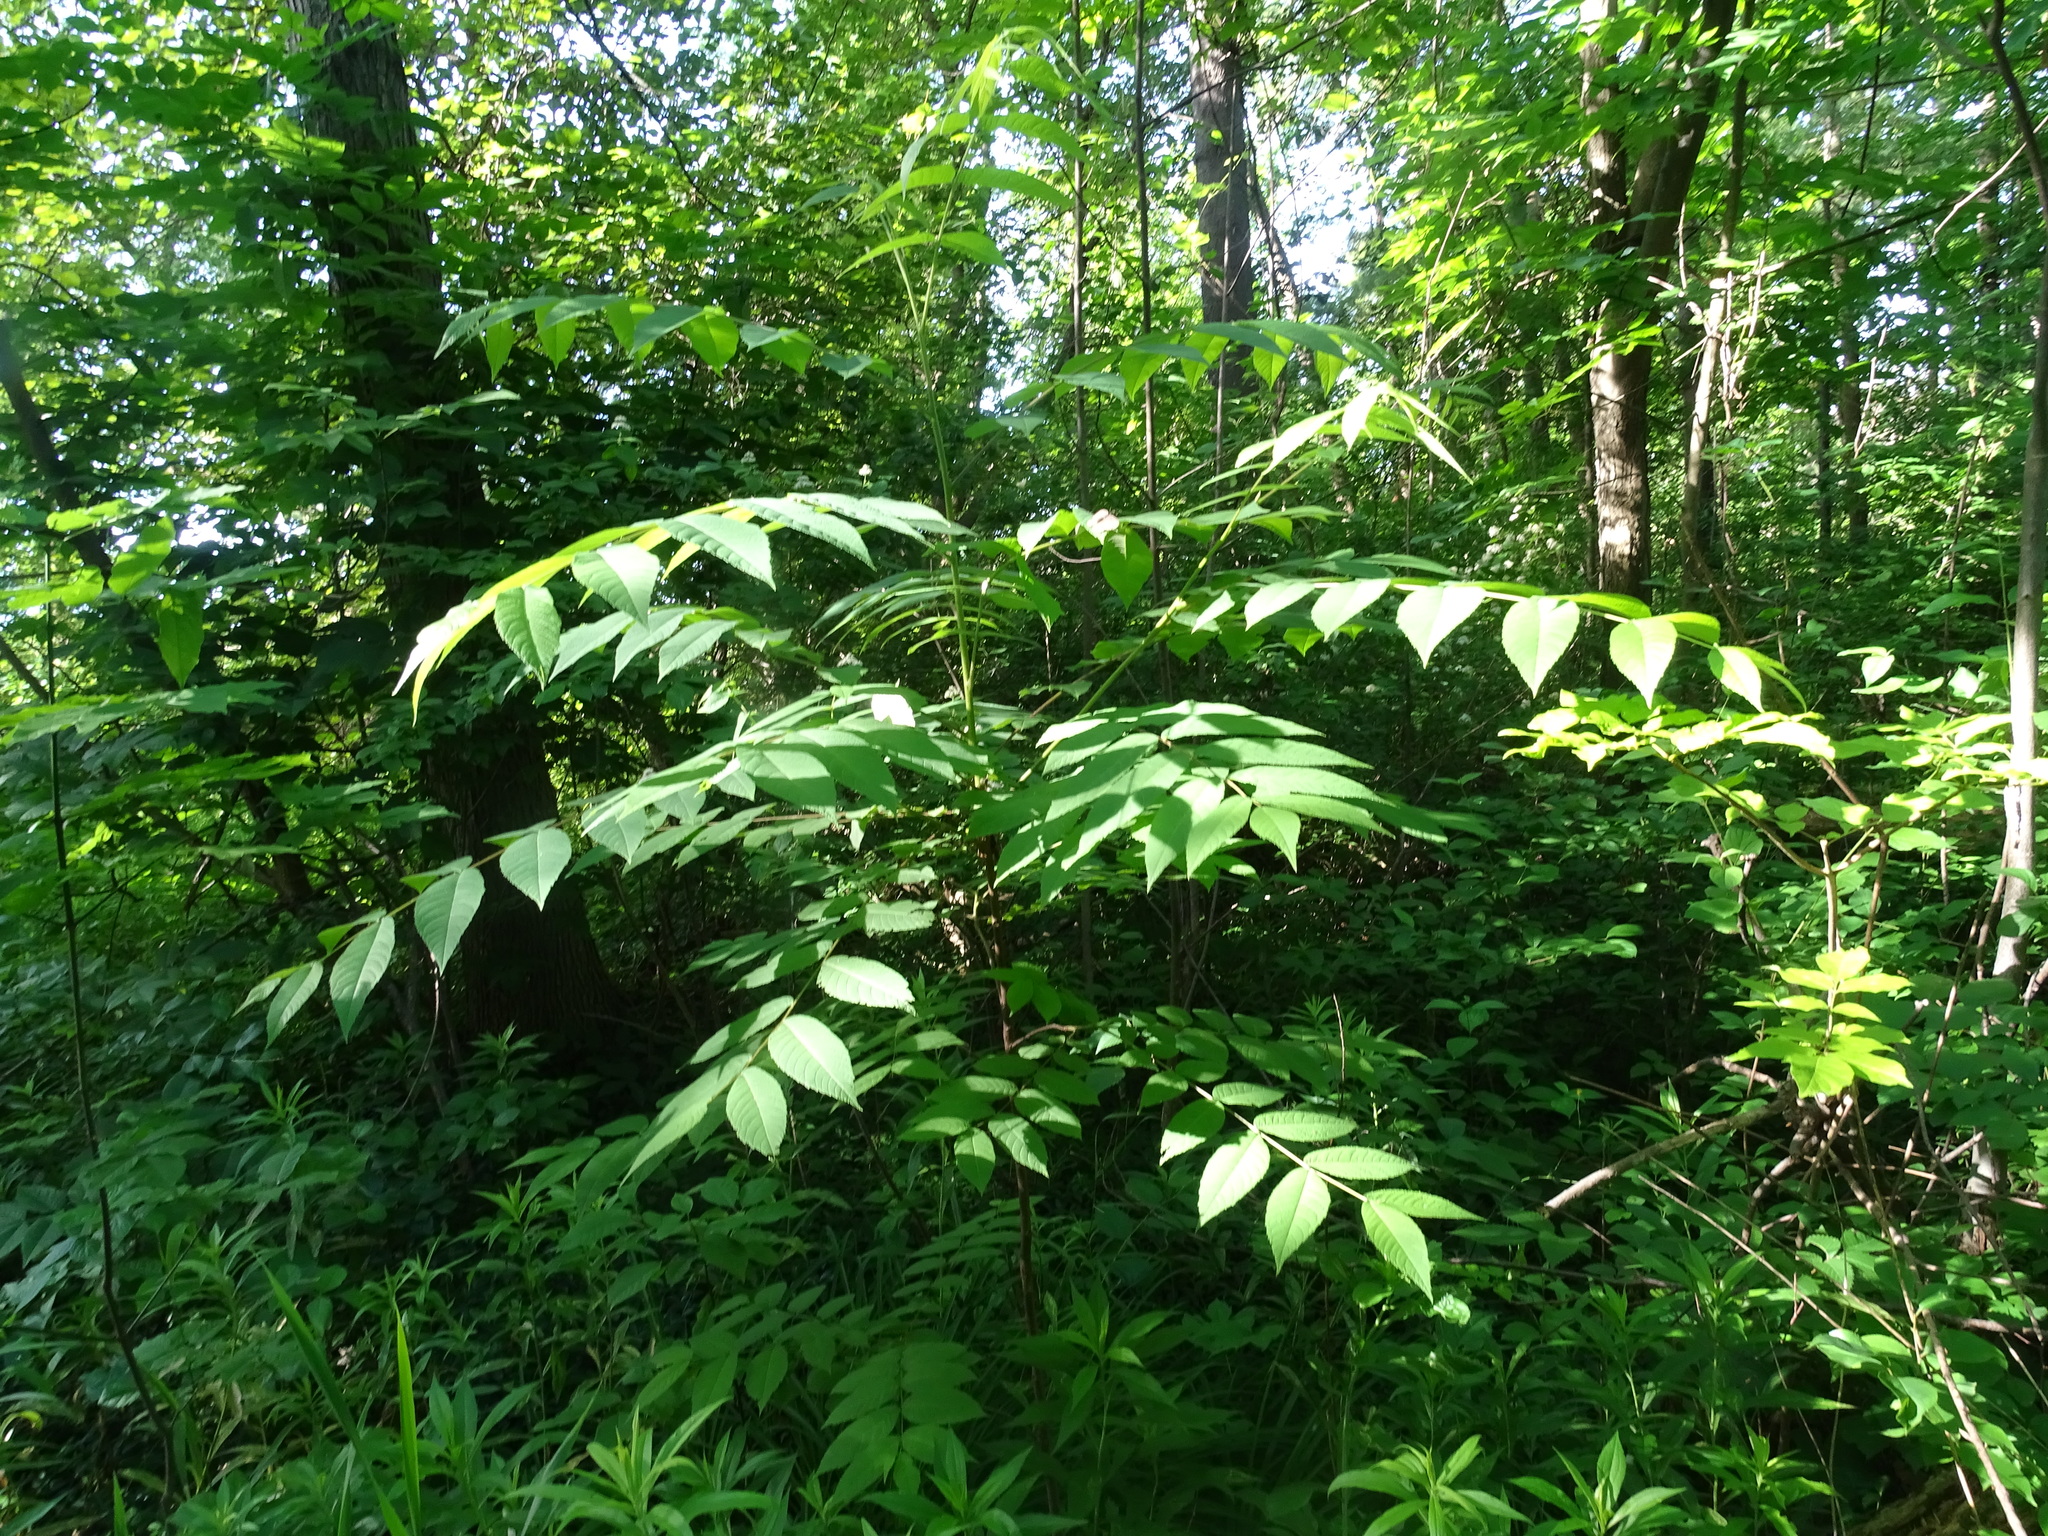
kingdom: Plantae
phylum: Tracheophyta
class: Magnoliopsida
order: Fagales
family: Juglandaceae
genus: Juglans
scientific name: Juglans nigra
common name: Black walnut
